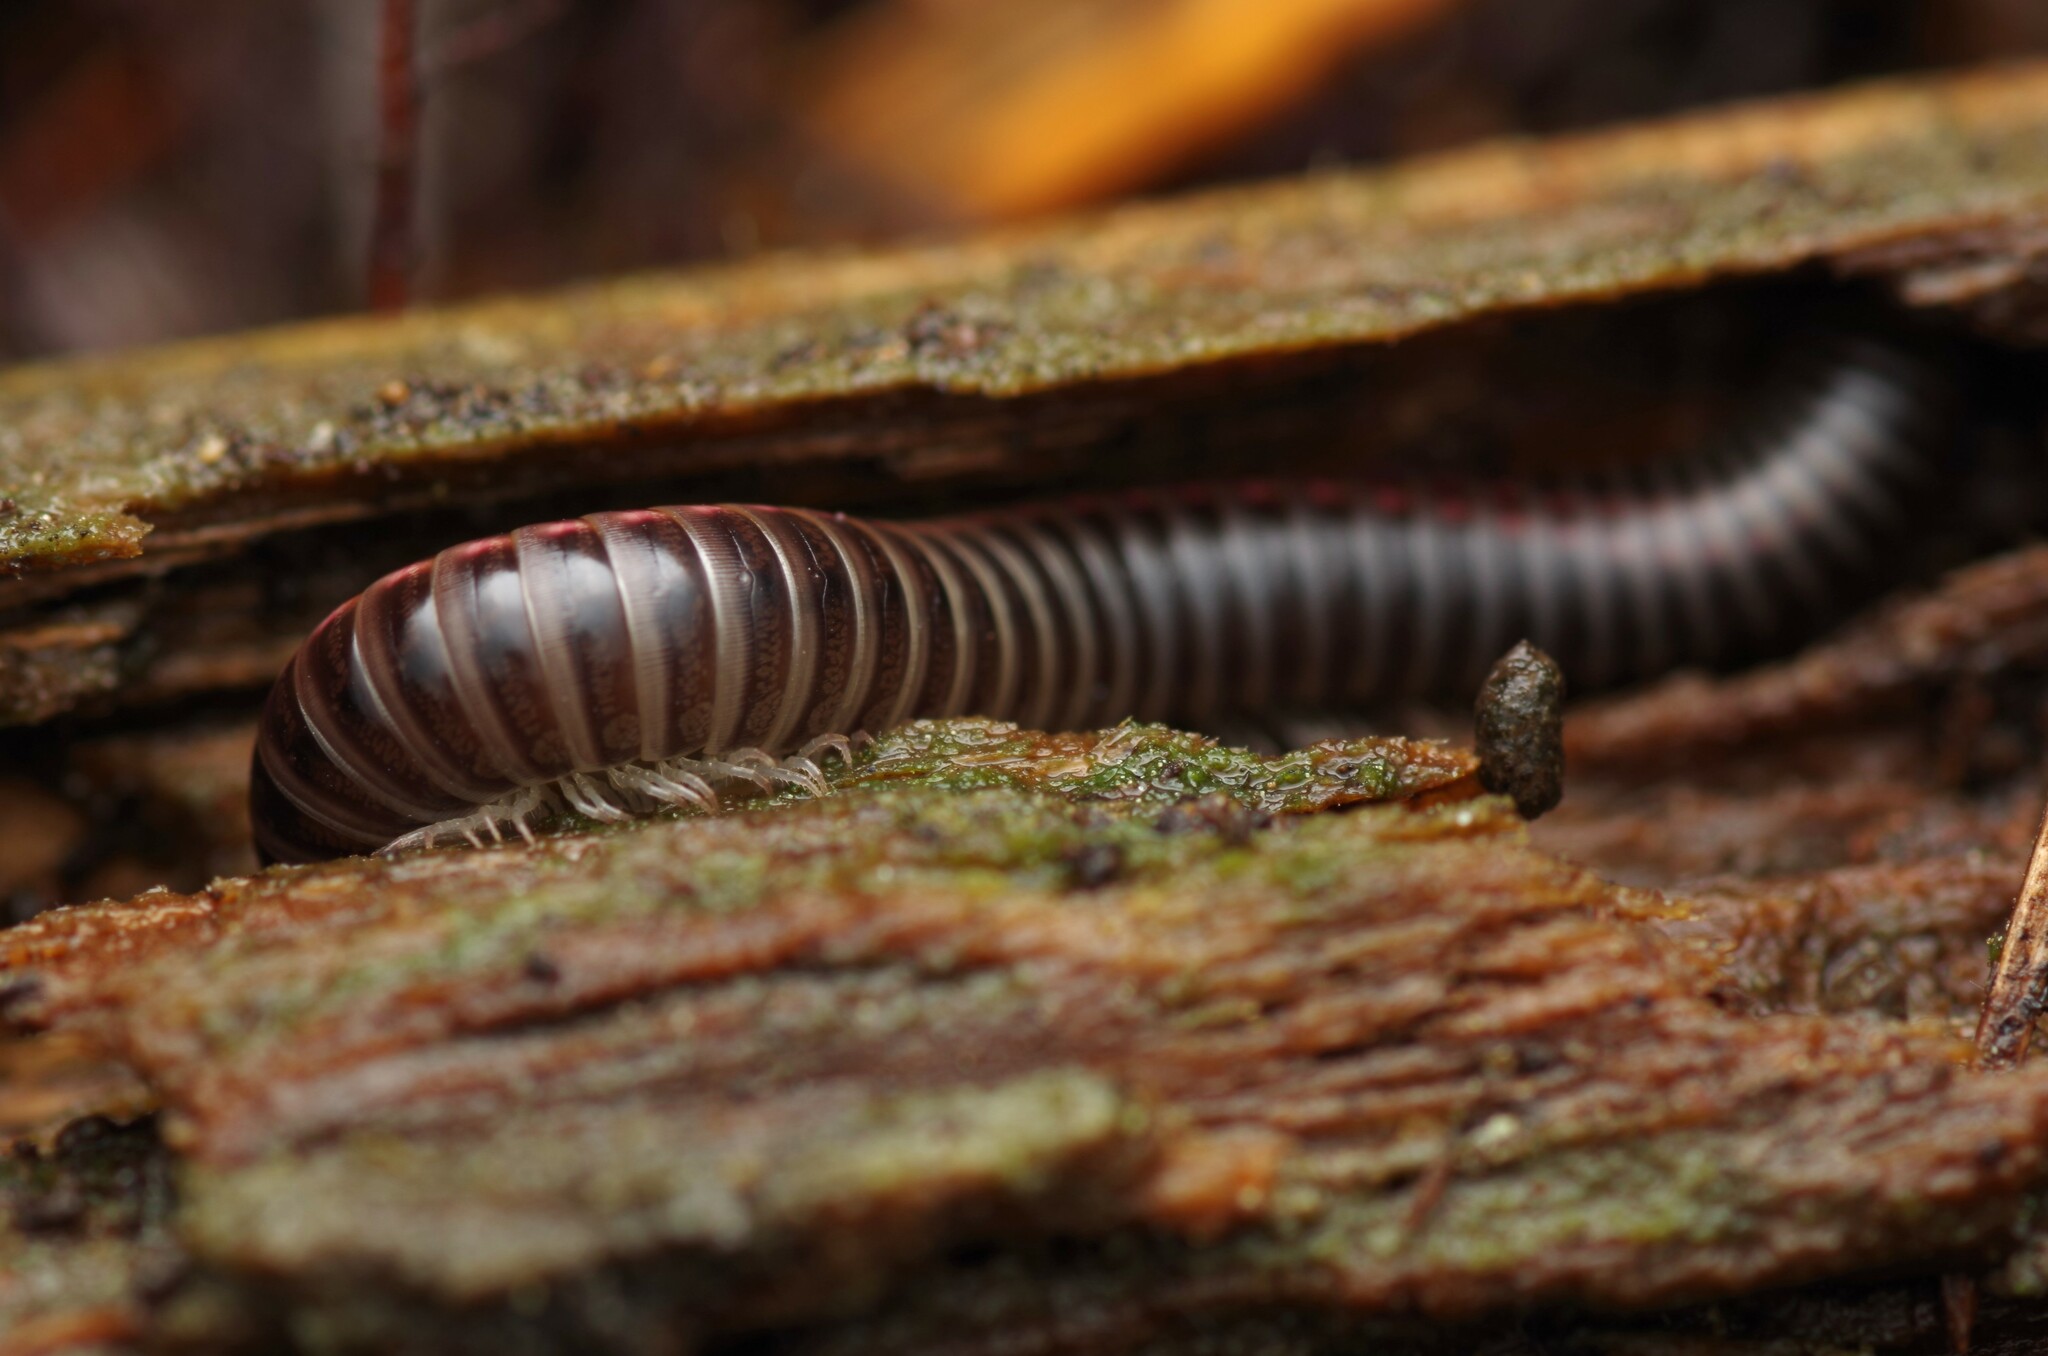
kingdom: Animalia
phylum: Arthropoda
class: Diplopoda
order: Julida
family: Julidae
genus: Ommatoiulus
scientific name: Ommatoiulus sabulosus
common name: Striped millipede
